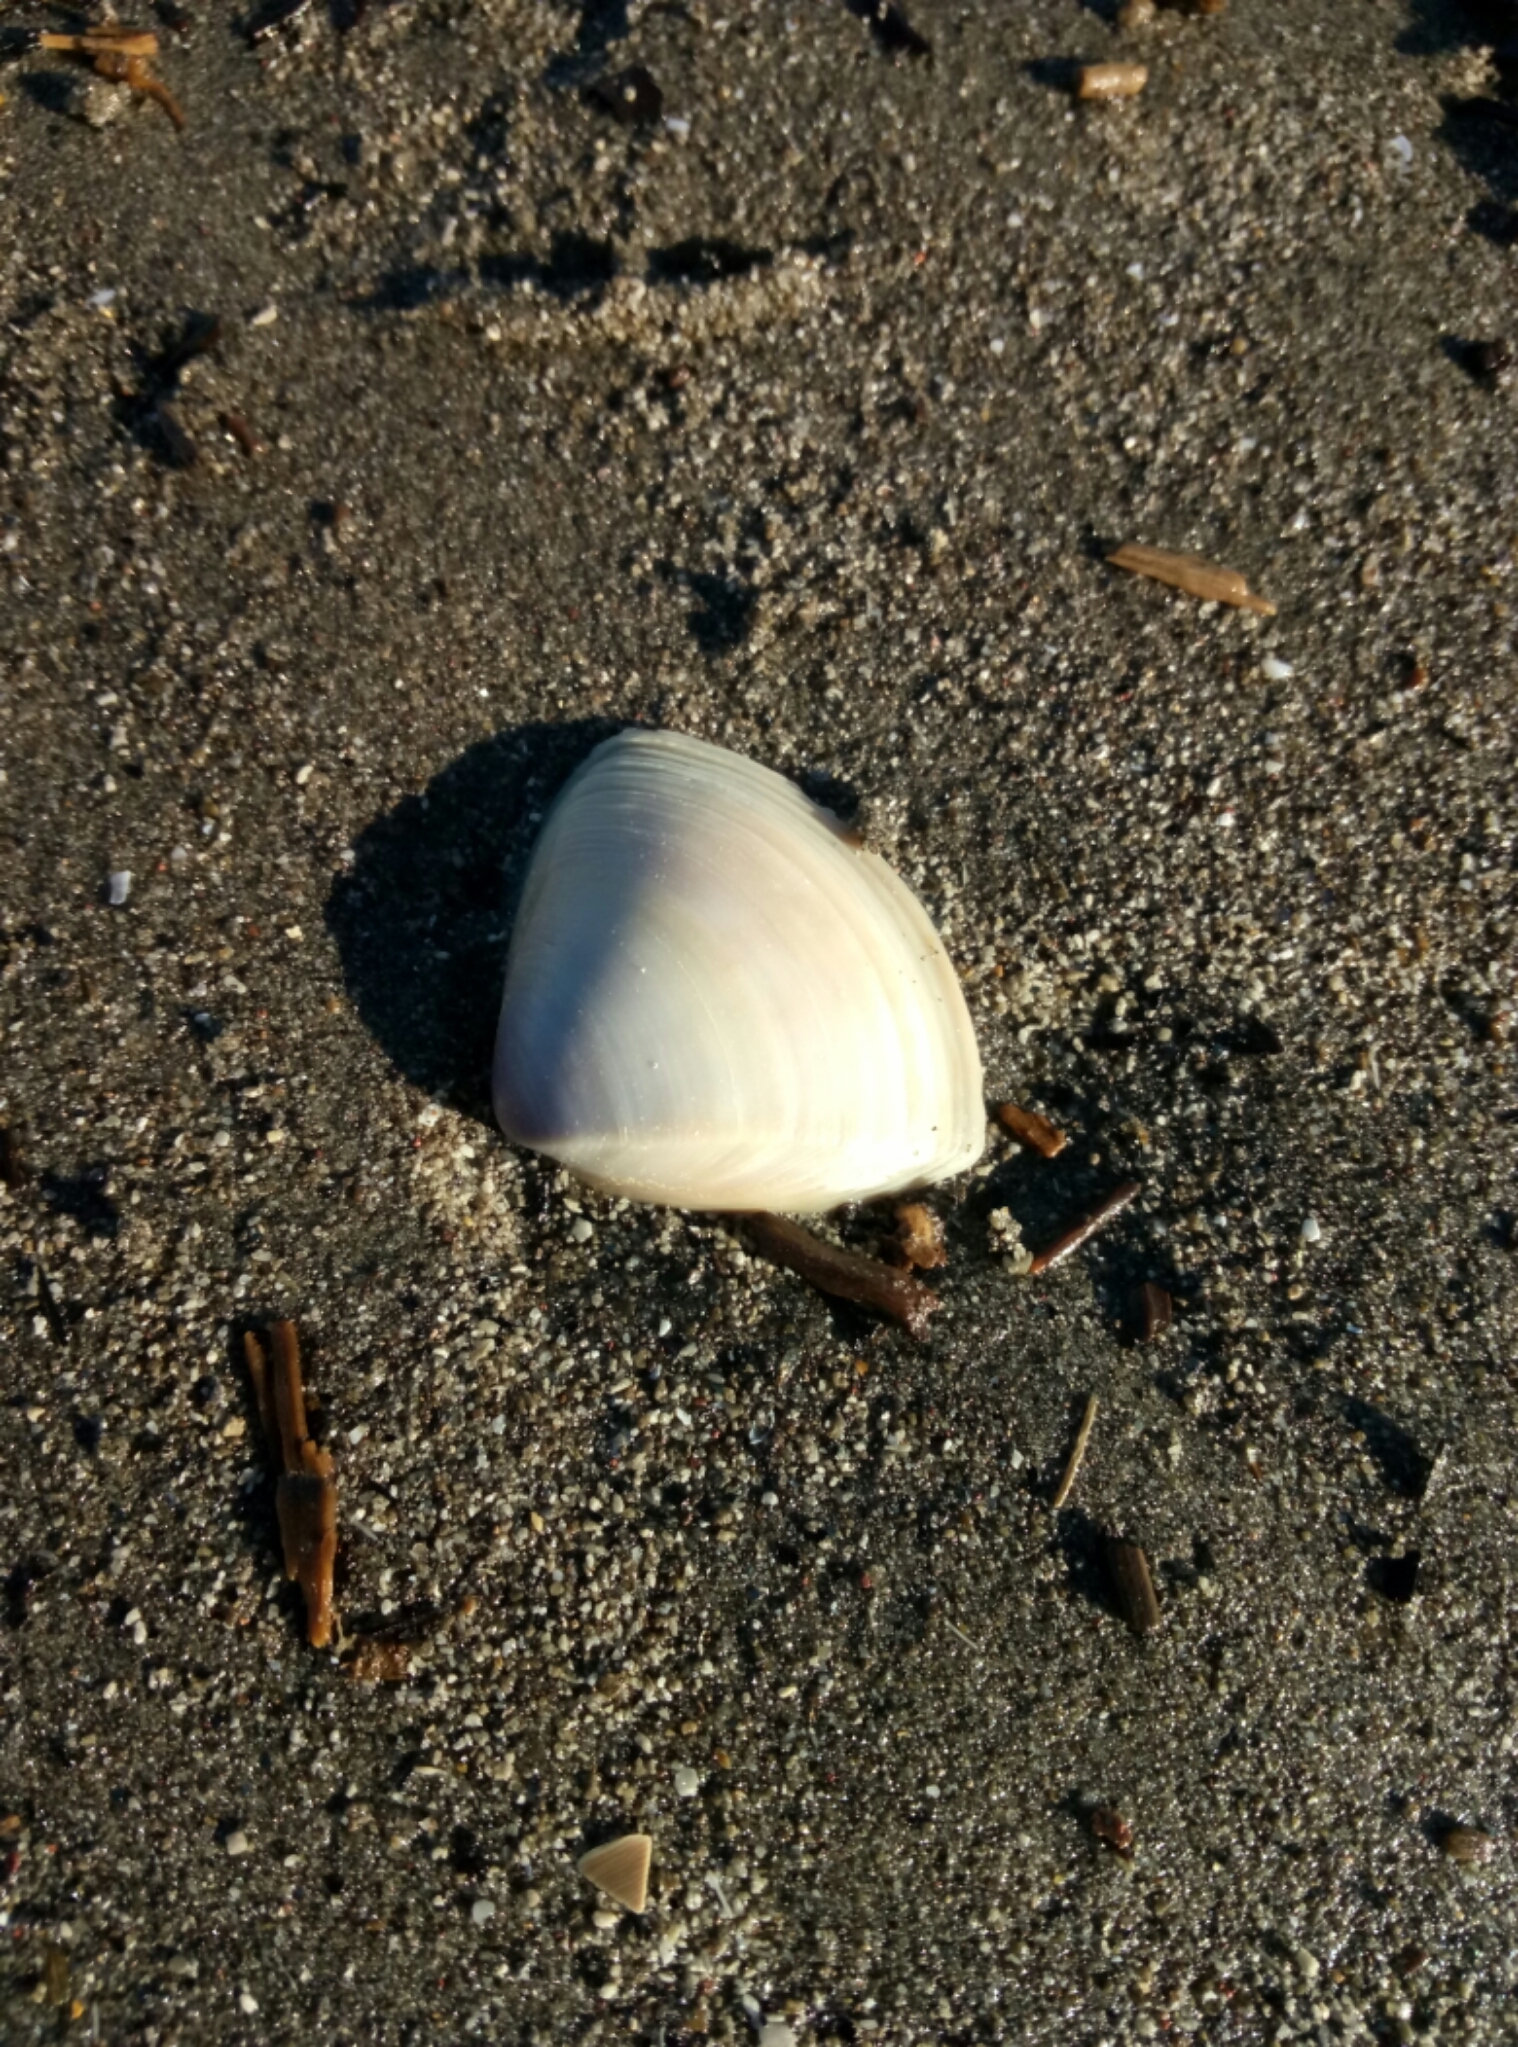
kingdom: Animalia
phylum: Mollusca
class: Bivalvia
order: Venerida
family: Mactridae
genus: Crassula
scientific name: Crassula aequilatera
